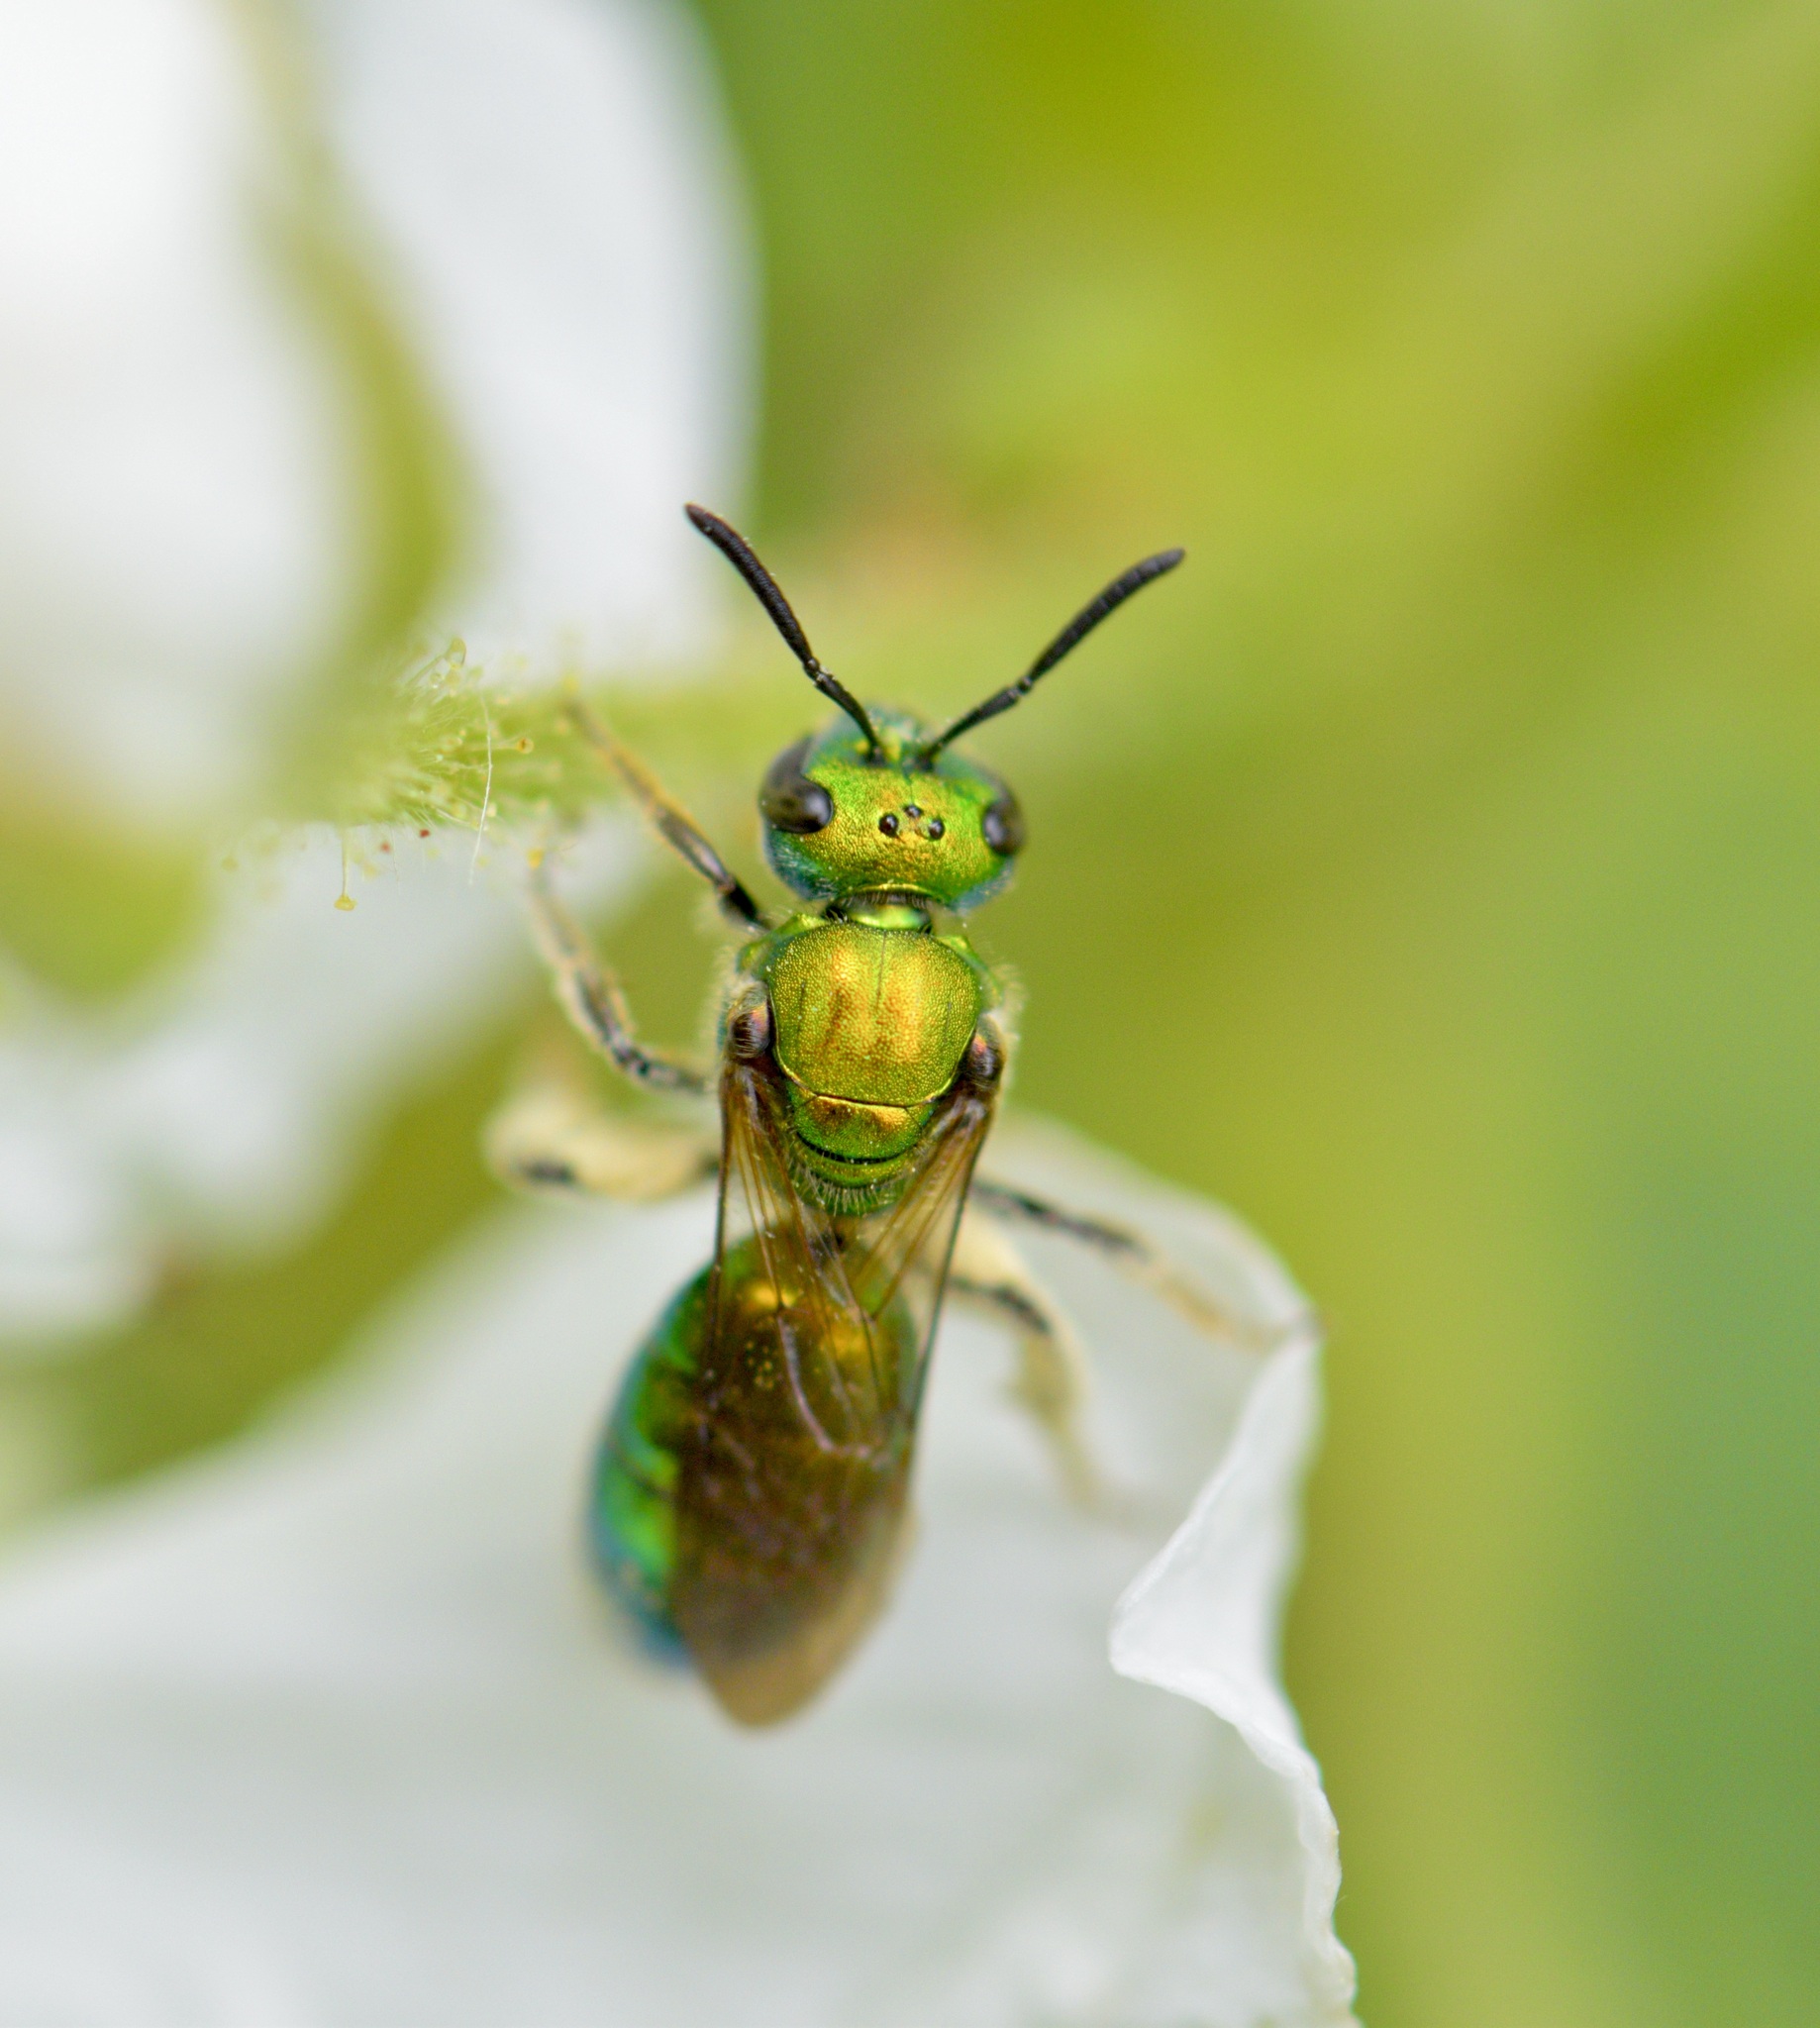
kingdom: Animalia
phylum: Arthropoda
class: Insecta
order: Hymenoptera
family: Halictidae
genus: Augochlora
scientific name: Augochlora pura
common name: Pure green sweat bee
